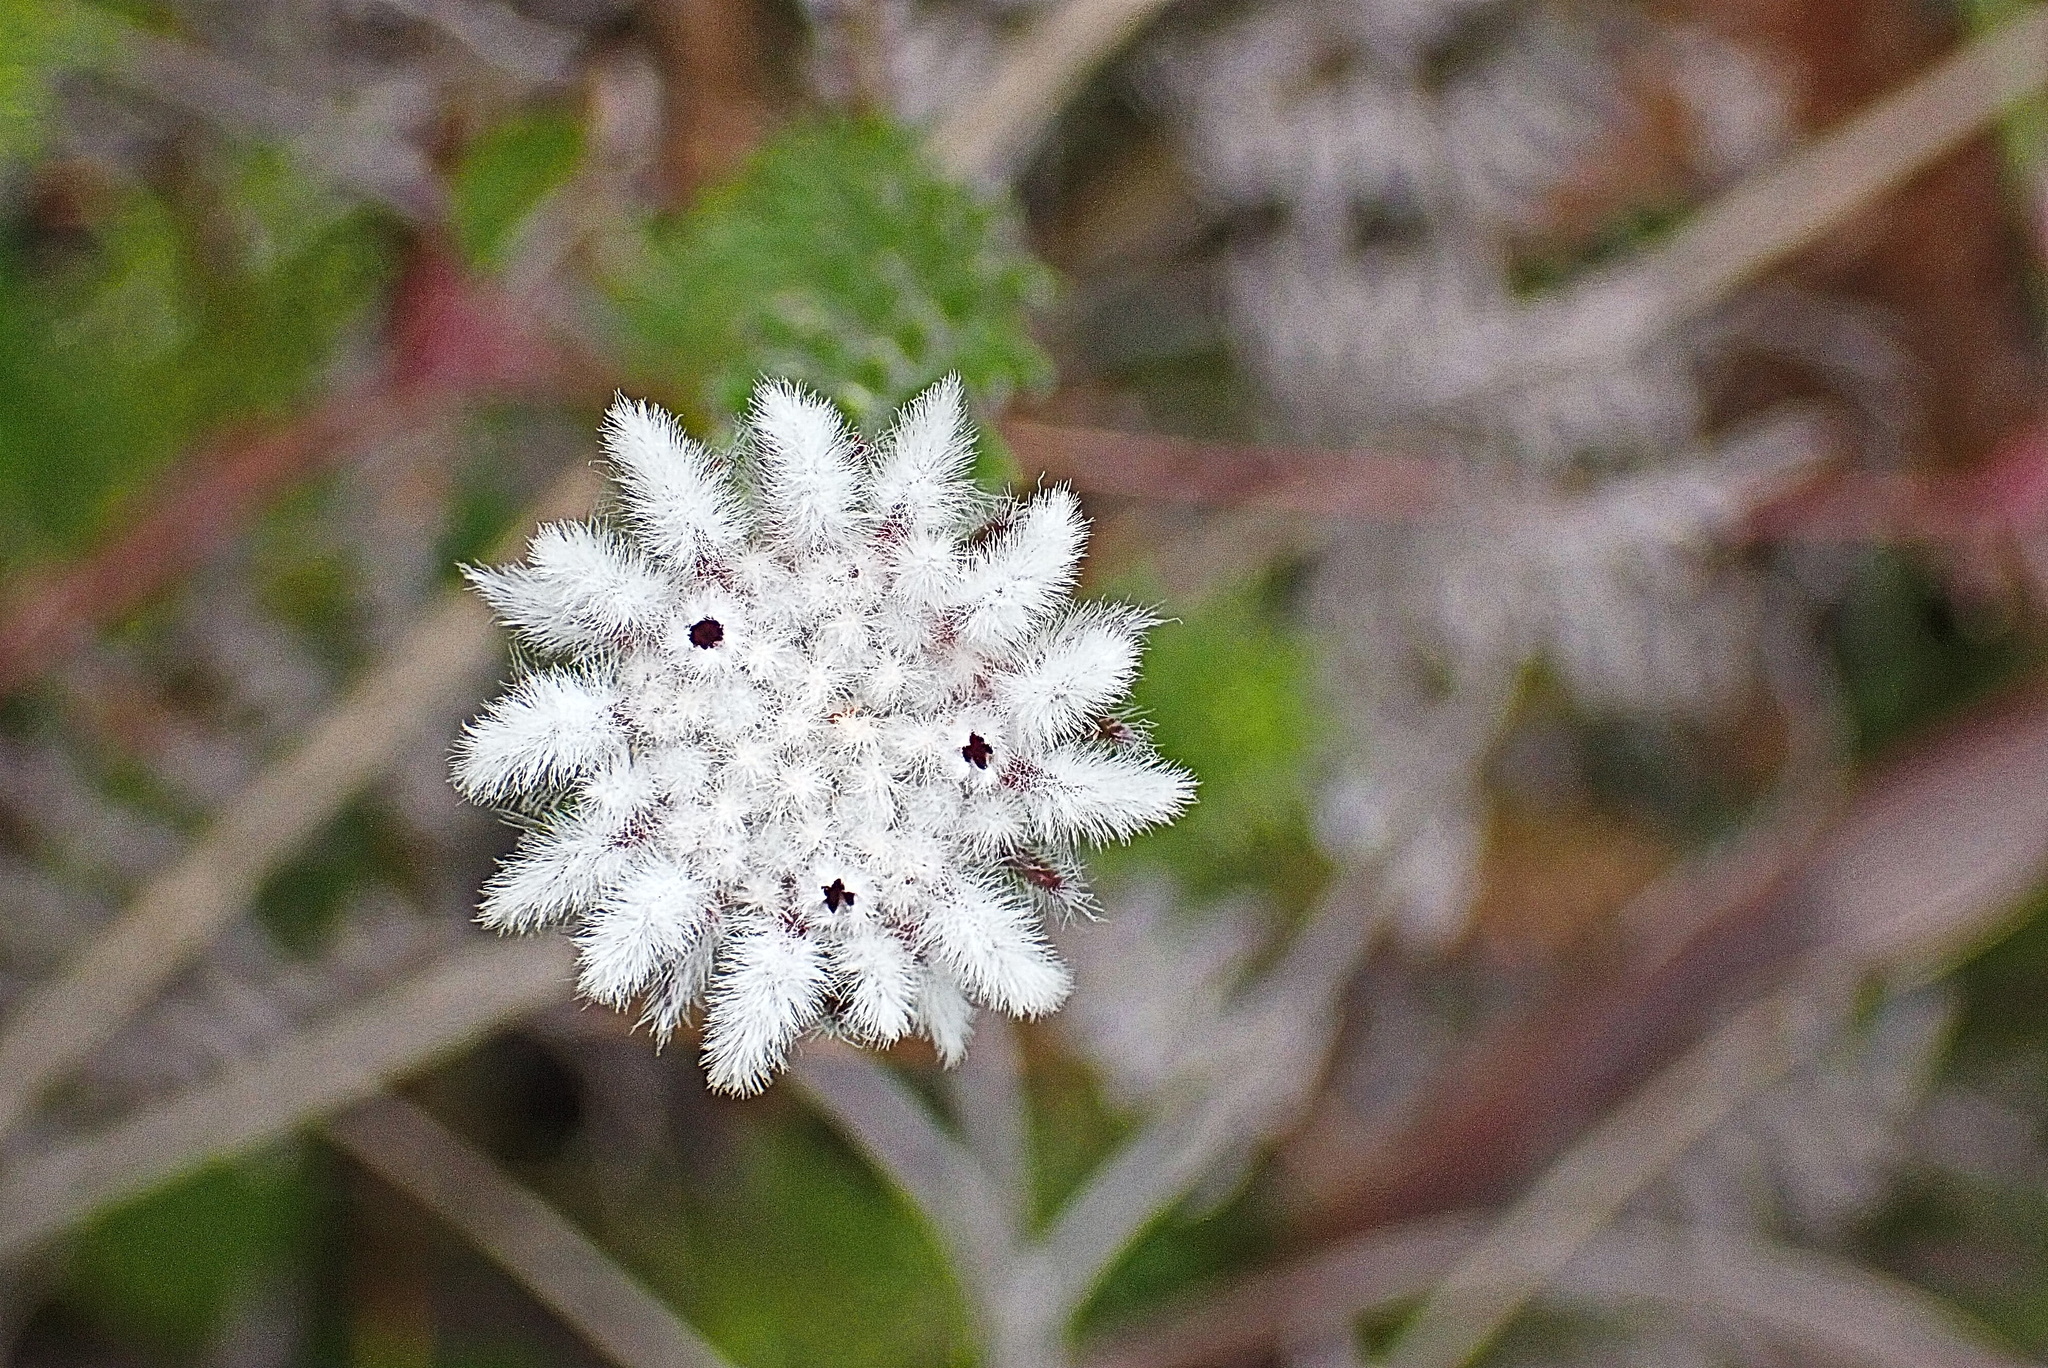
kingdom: Plantae
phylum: Tracheophyta
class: Magnoliopsida
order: Rosales
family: Rhamnaceae
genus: Phylica
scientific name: Phylica curvifolia
